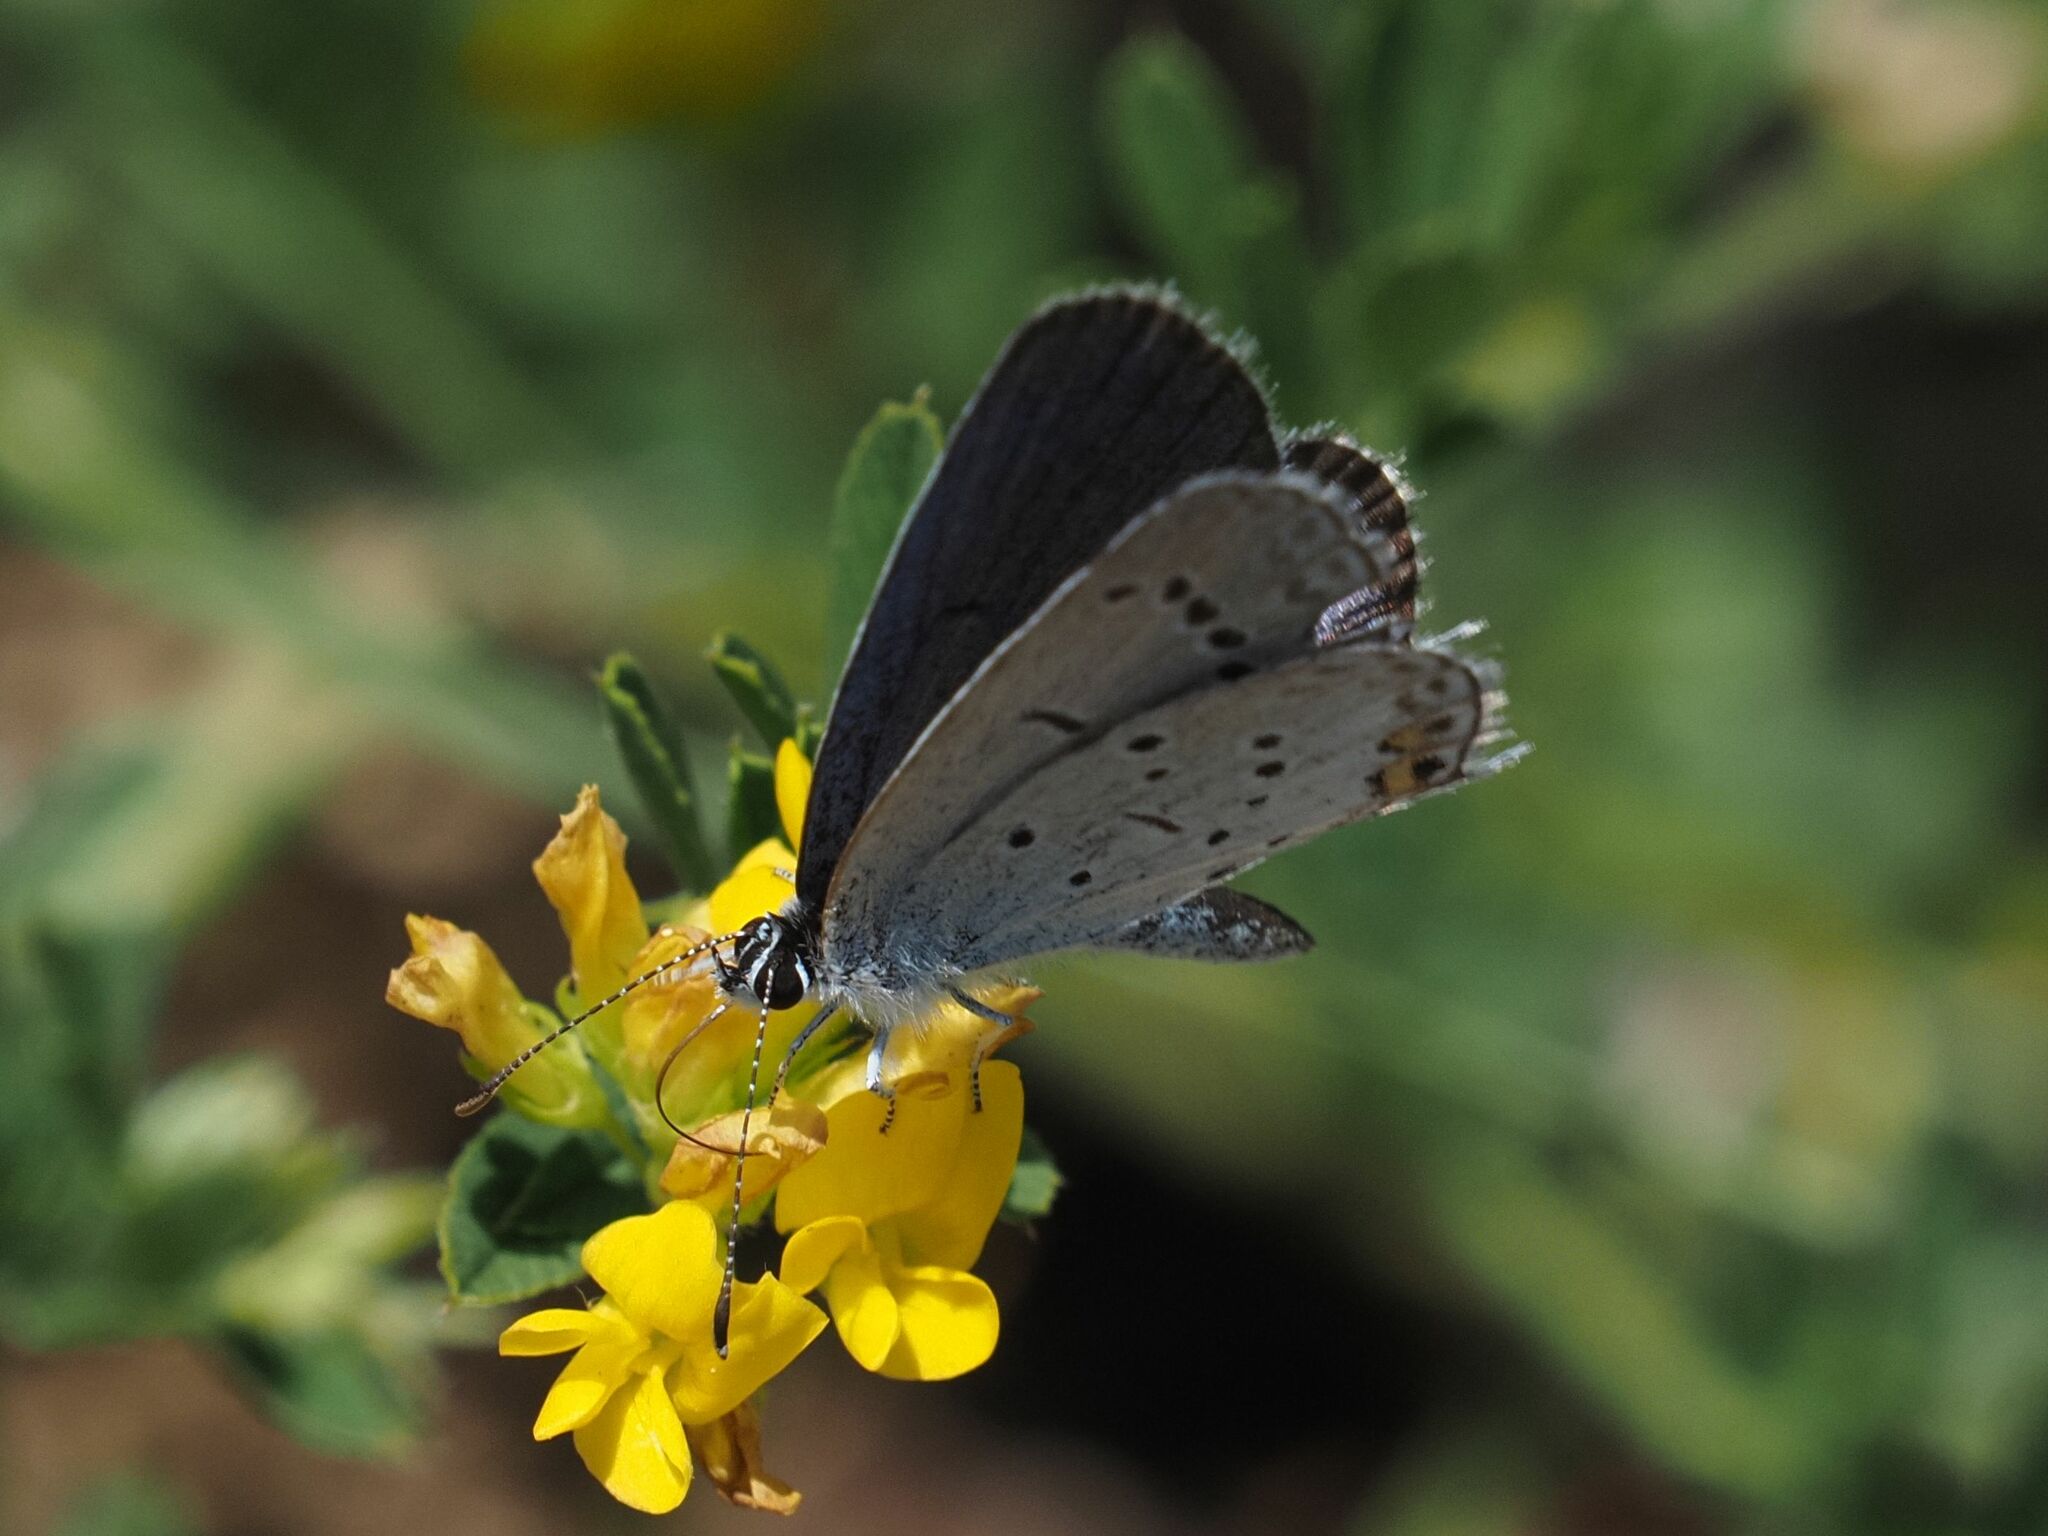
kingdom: Animalia
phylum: Arthropoda
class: Insecta
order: Lepidoptera
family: Lycaenidae
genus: Elkalyce
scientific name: Elkalyce argiades
